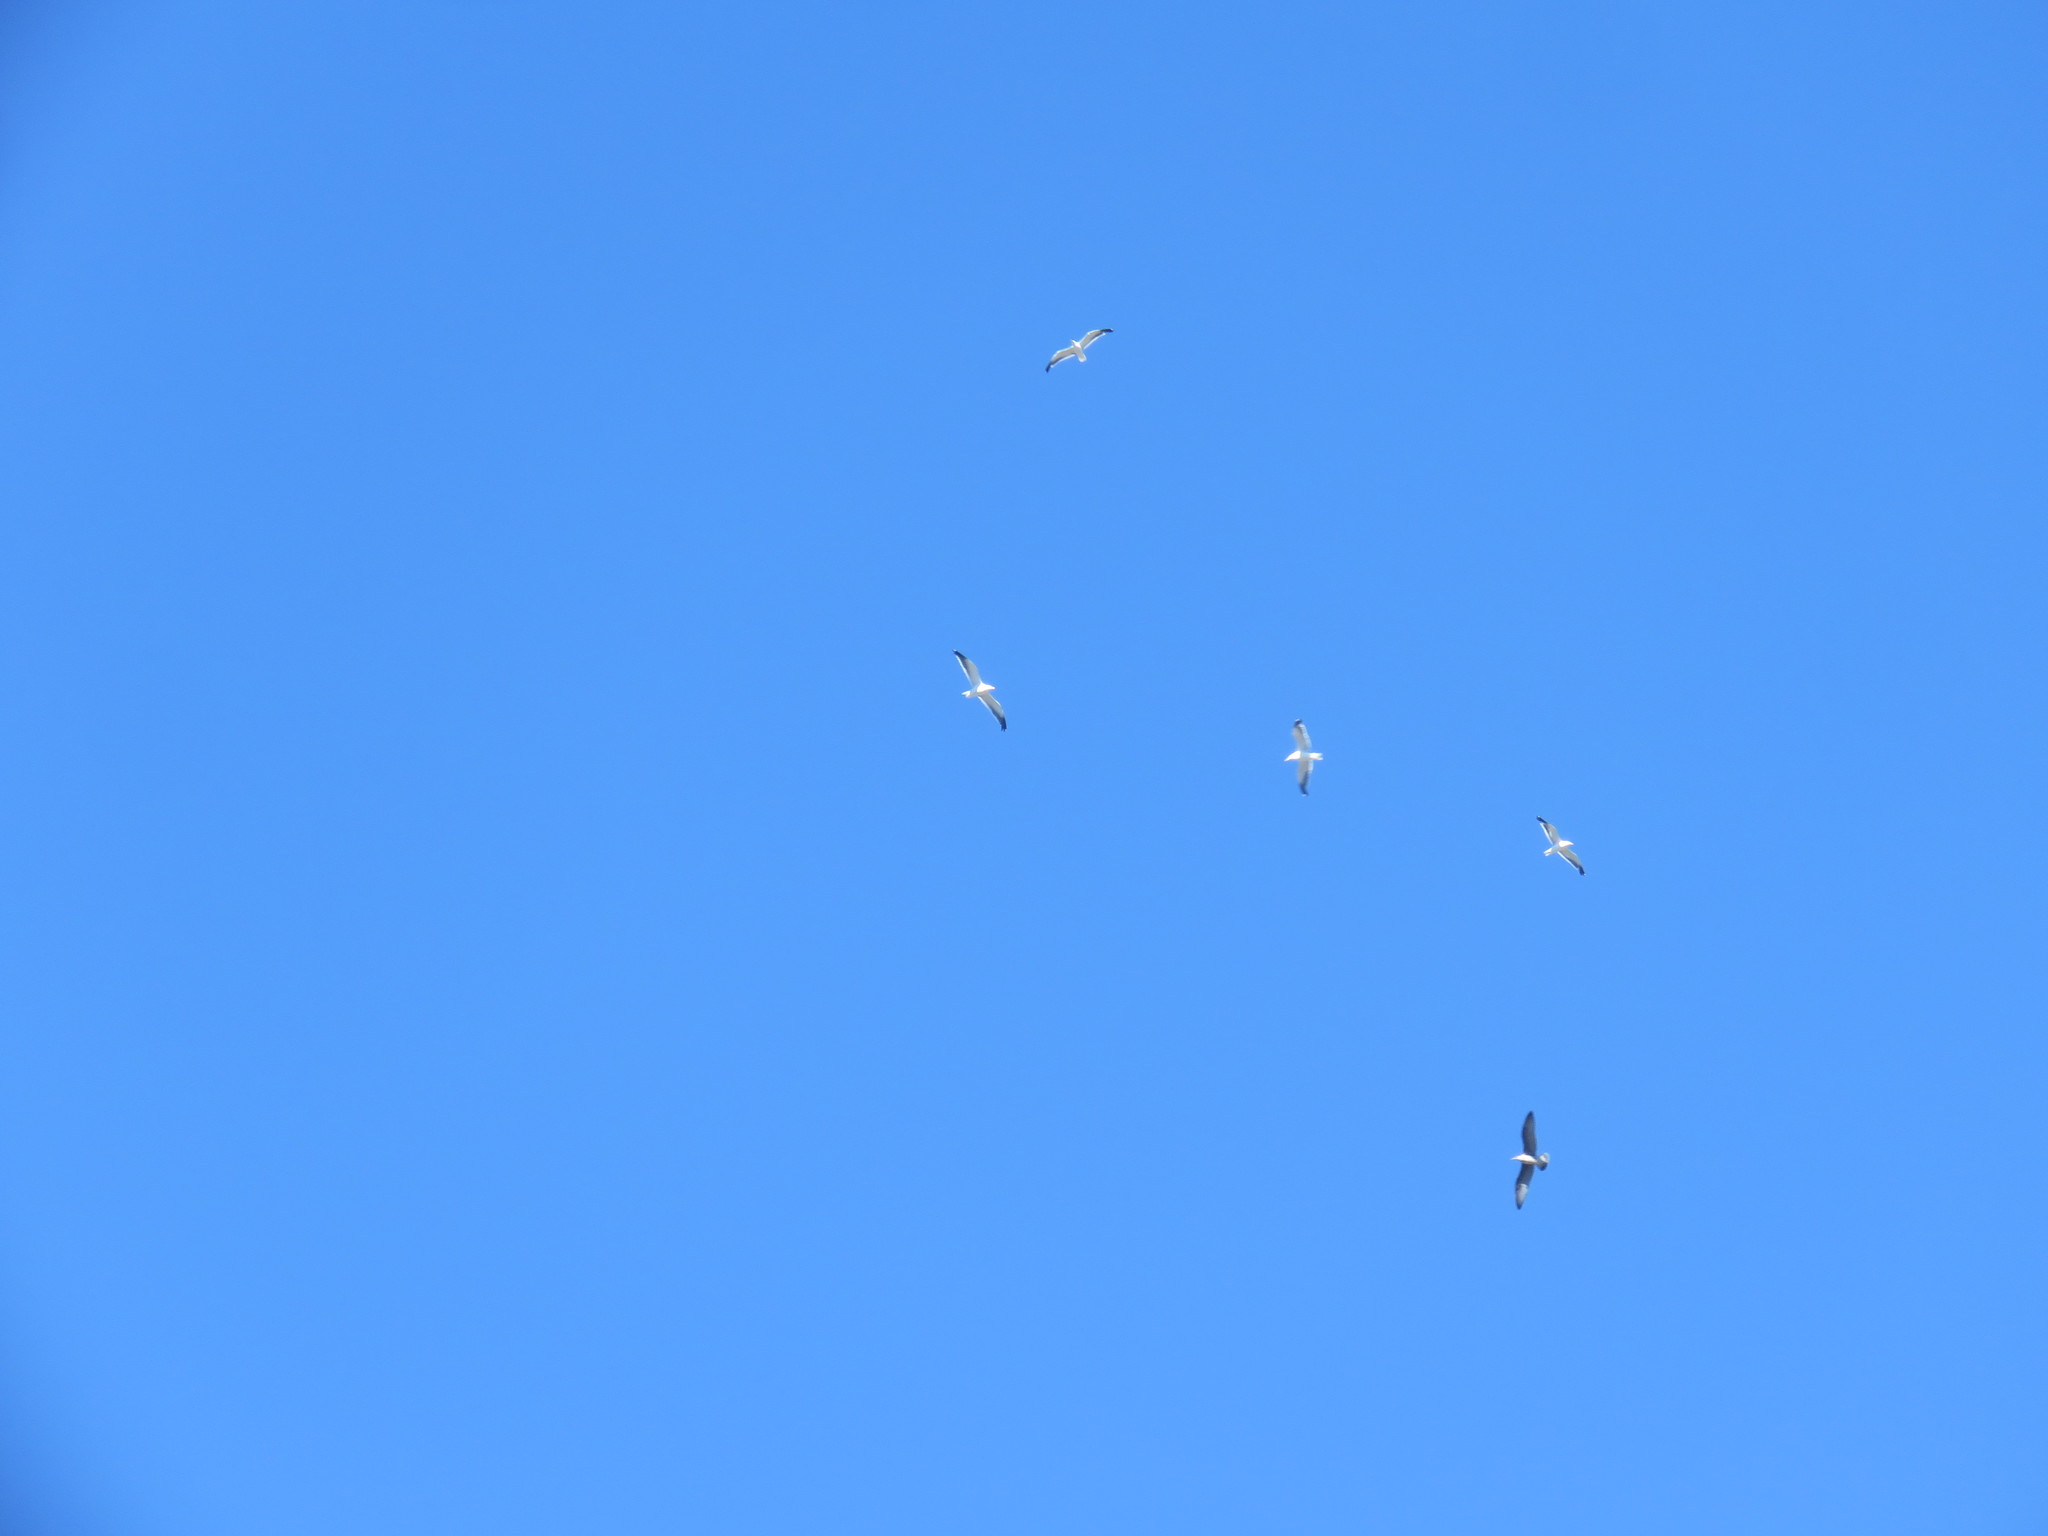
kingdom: Animalia
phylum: Chordata
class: Aves
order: Charadriiformes
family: Laridae
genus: Larus
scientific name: Larus dominicanus
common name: Kelp gull
